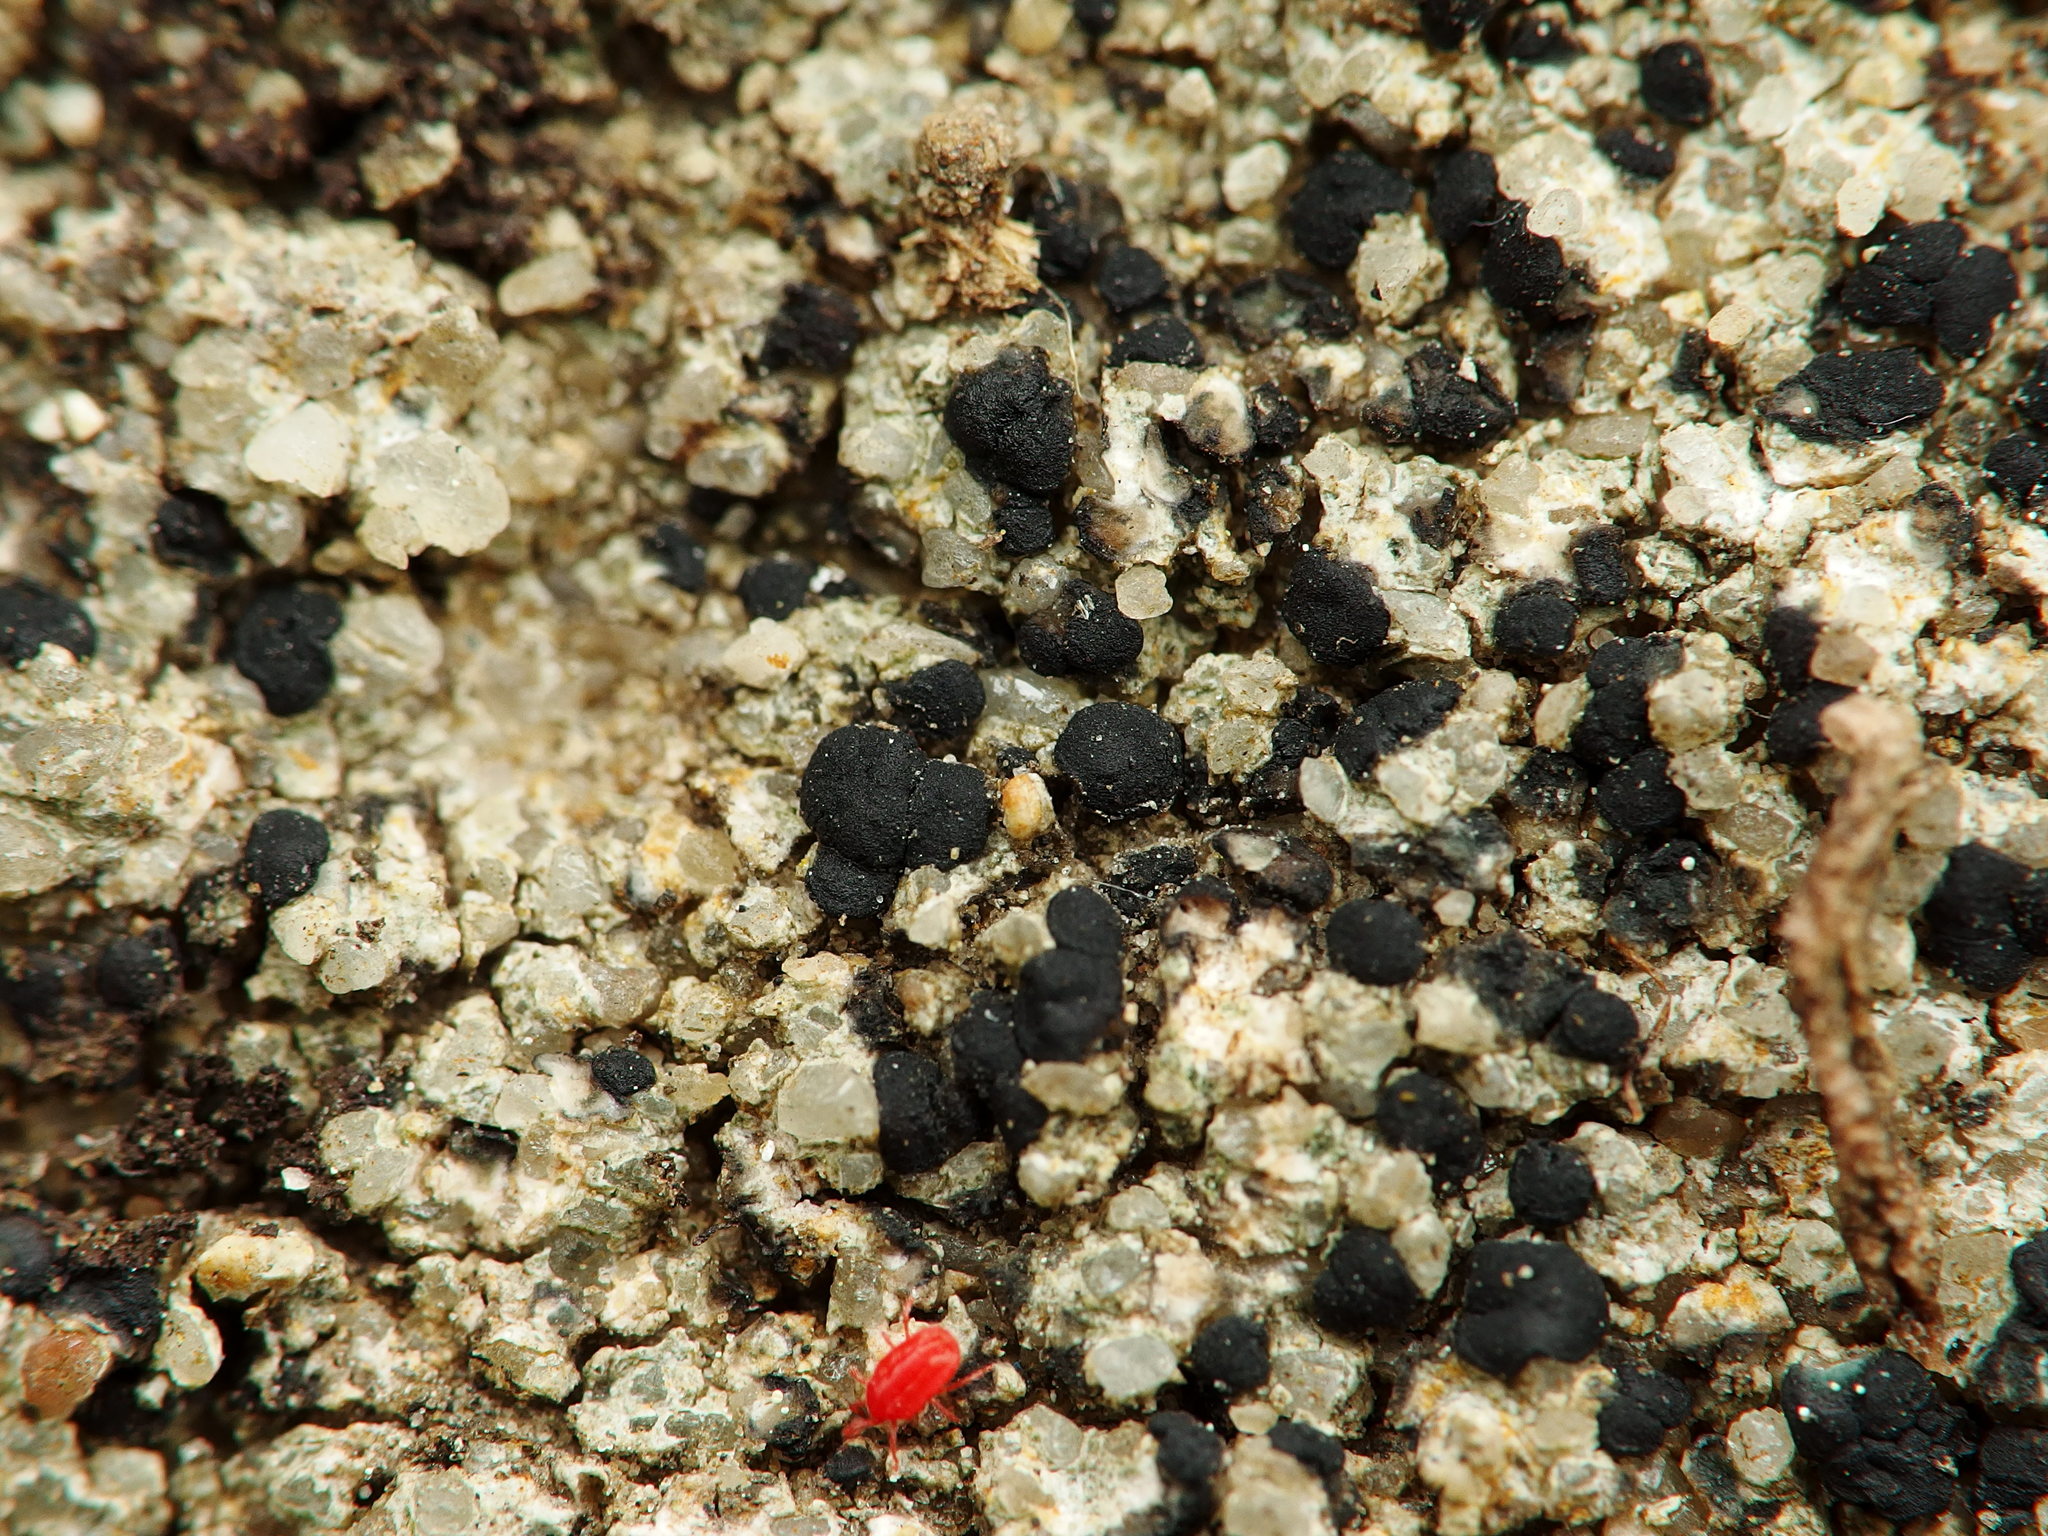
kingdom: Fungi
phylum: Ascomycota
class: Lecanoromycetes
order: Lecideales
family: Lecideaceae
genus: Porpidia
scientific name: Porpidia crustulata
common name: Concentric boulder lichen
